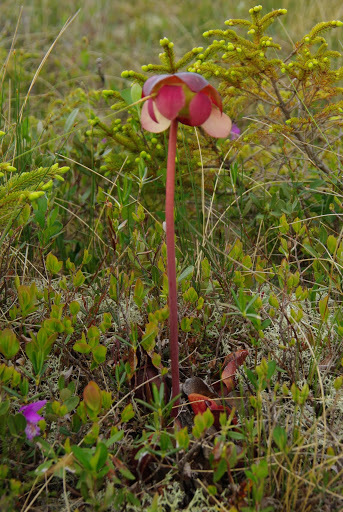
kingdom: Plantae
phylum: Tracheophyta
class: Magnoliopsida
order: Ericales
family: Sarraceniaceae
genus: Sarracenia
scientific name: Sarracenia purpurea
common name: Pitcherplant
